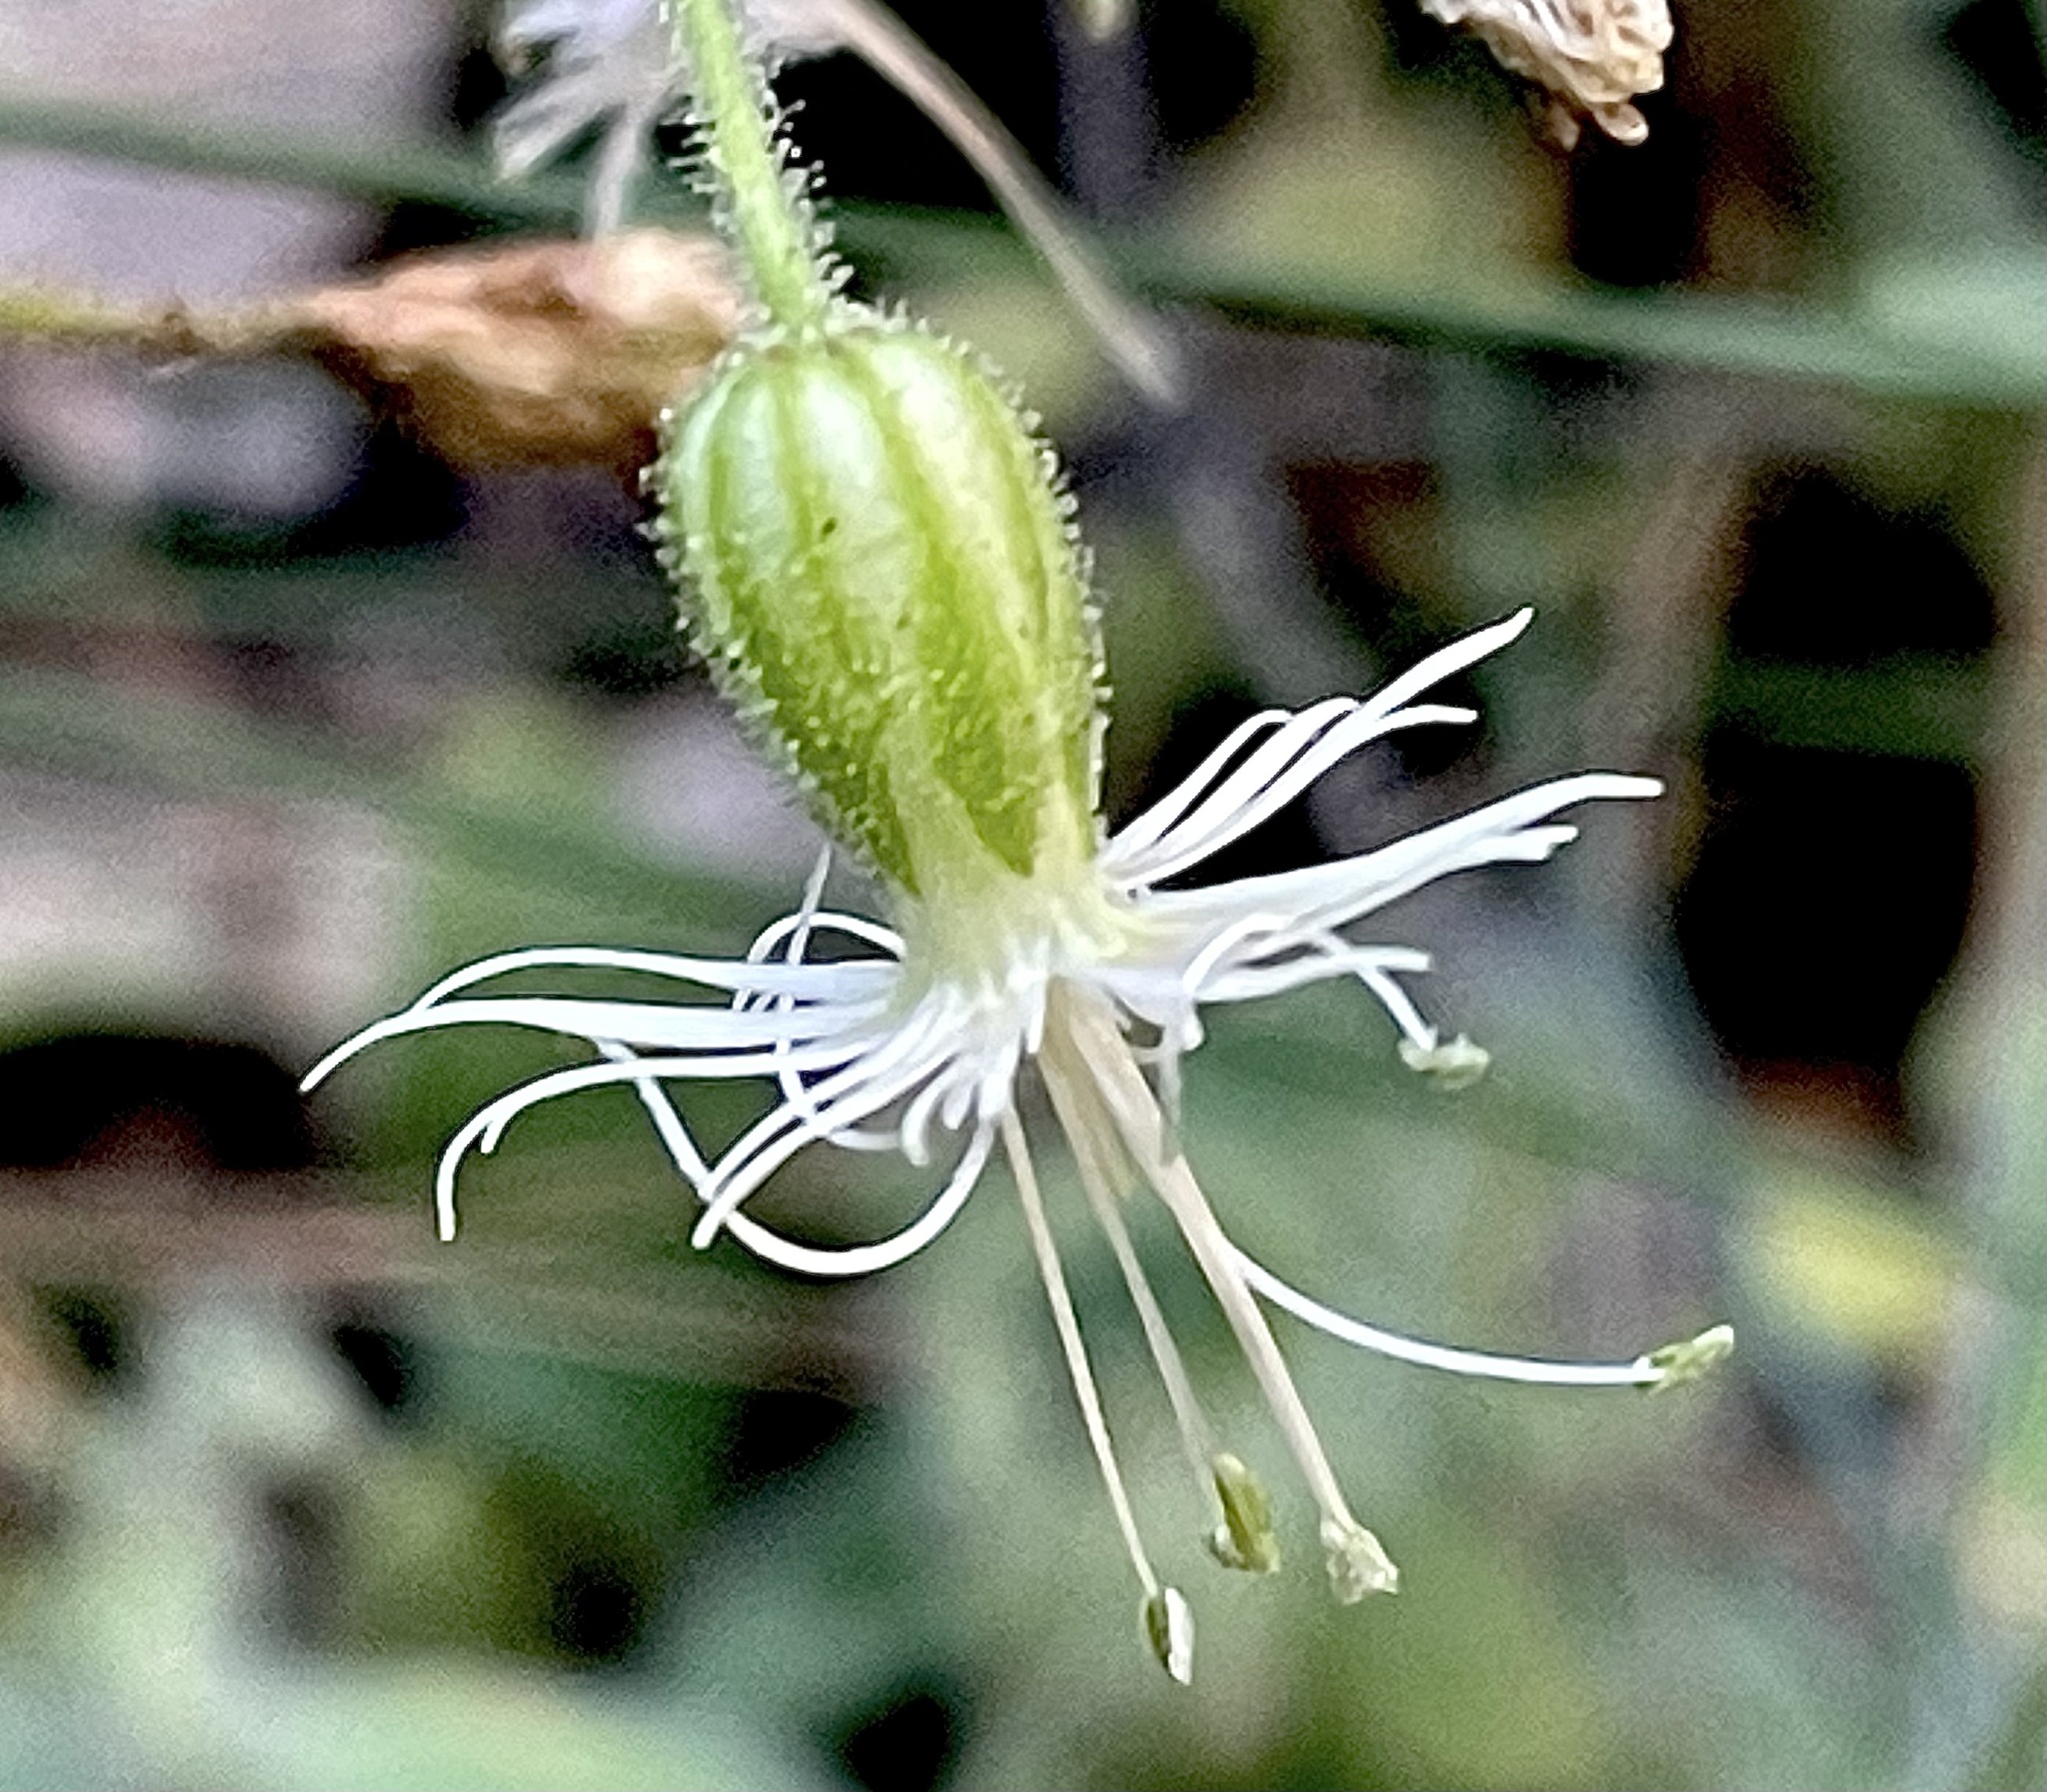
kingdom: Plantae
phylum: Tracheophyta
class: Magnoliopsida
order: Caryophyllales
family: Caryophyllaceae
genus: Silene
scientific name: Silene lemmonii
